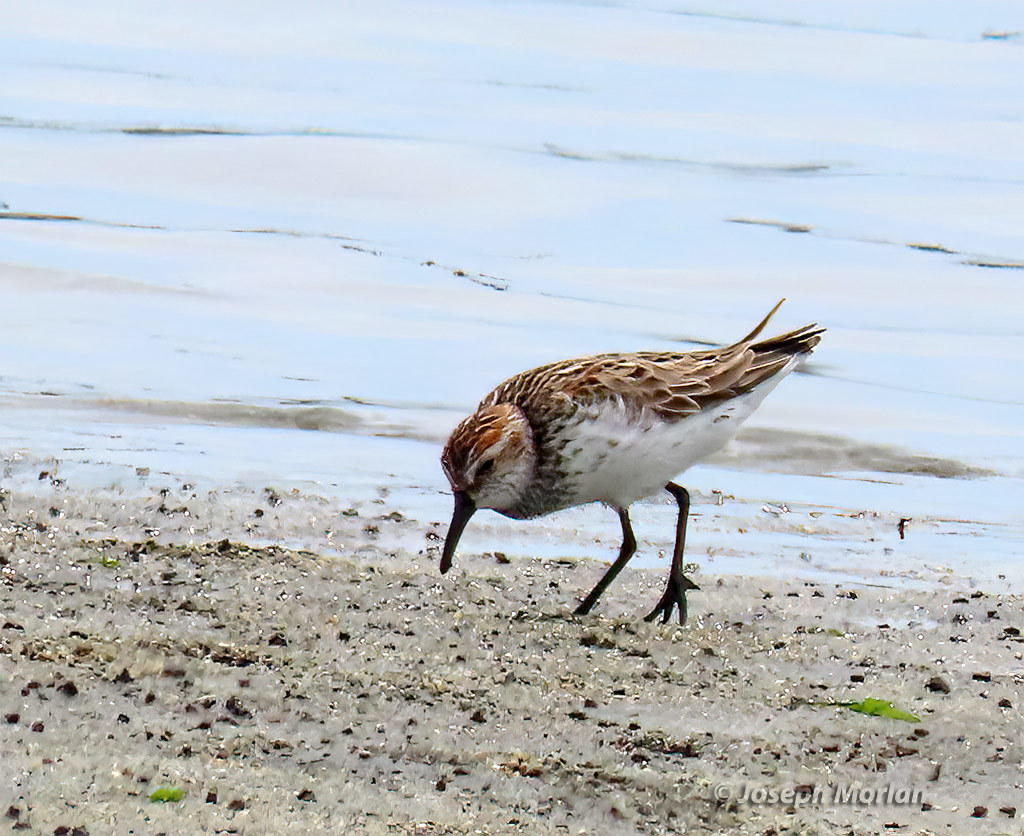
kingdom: Animalia
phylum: Chordata
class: Aves
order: Charadriiformes
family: Scolopacidae
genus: Calidris
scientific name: Calidris mauri
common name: Western sandpiper
